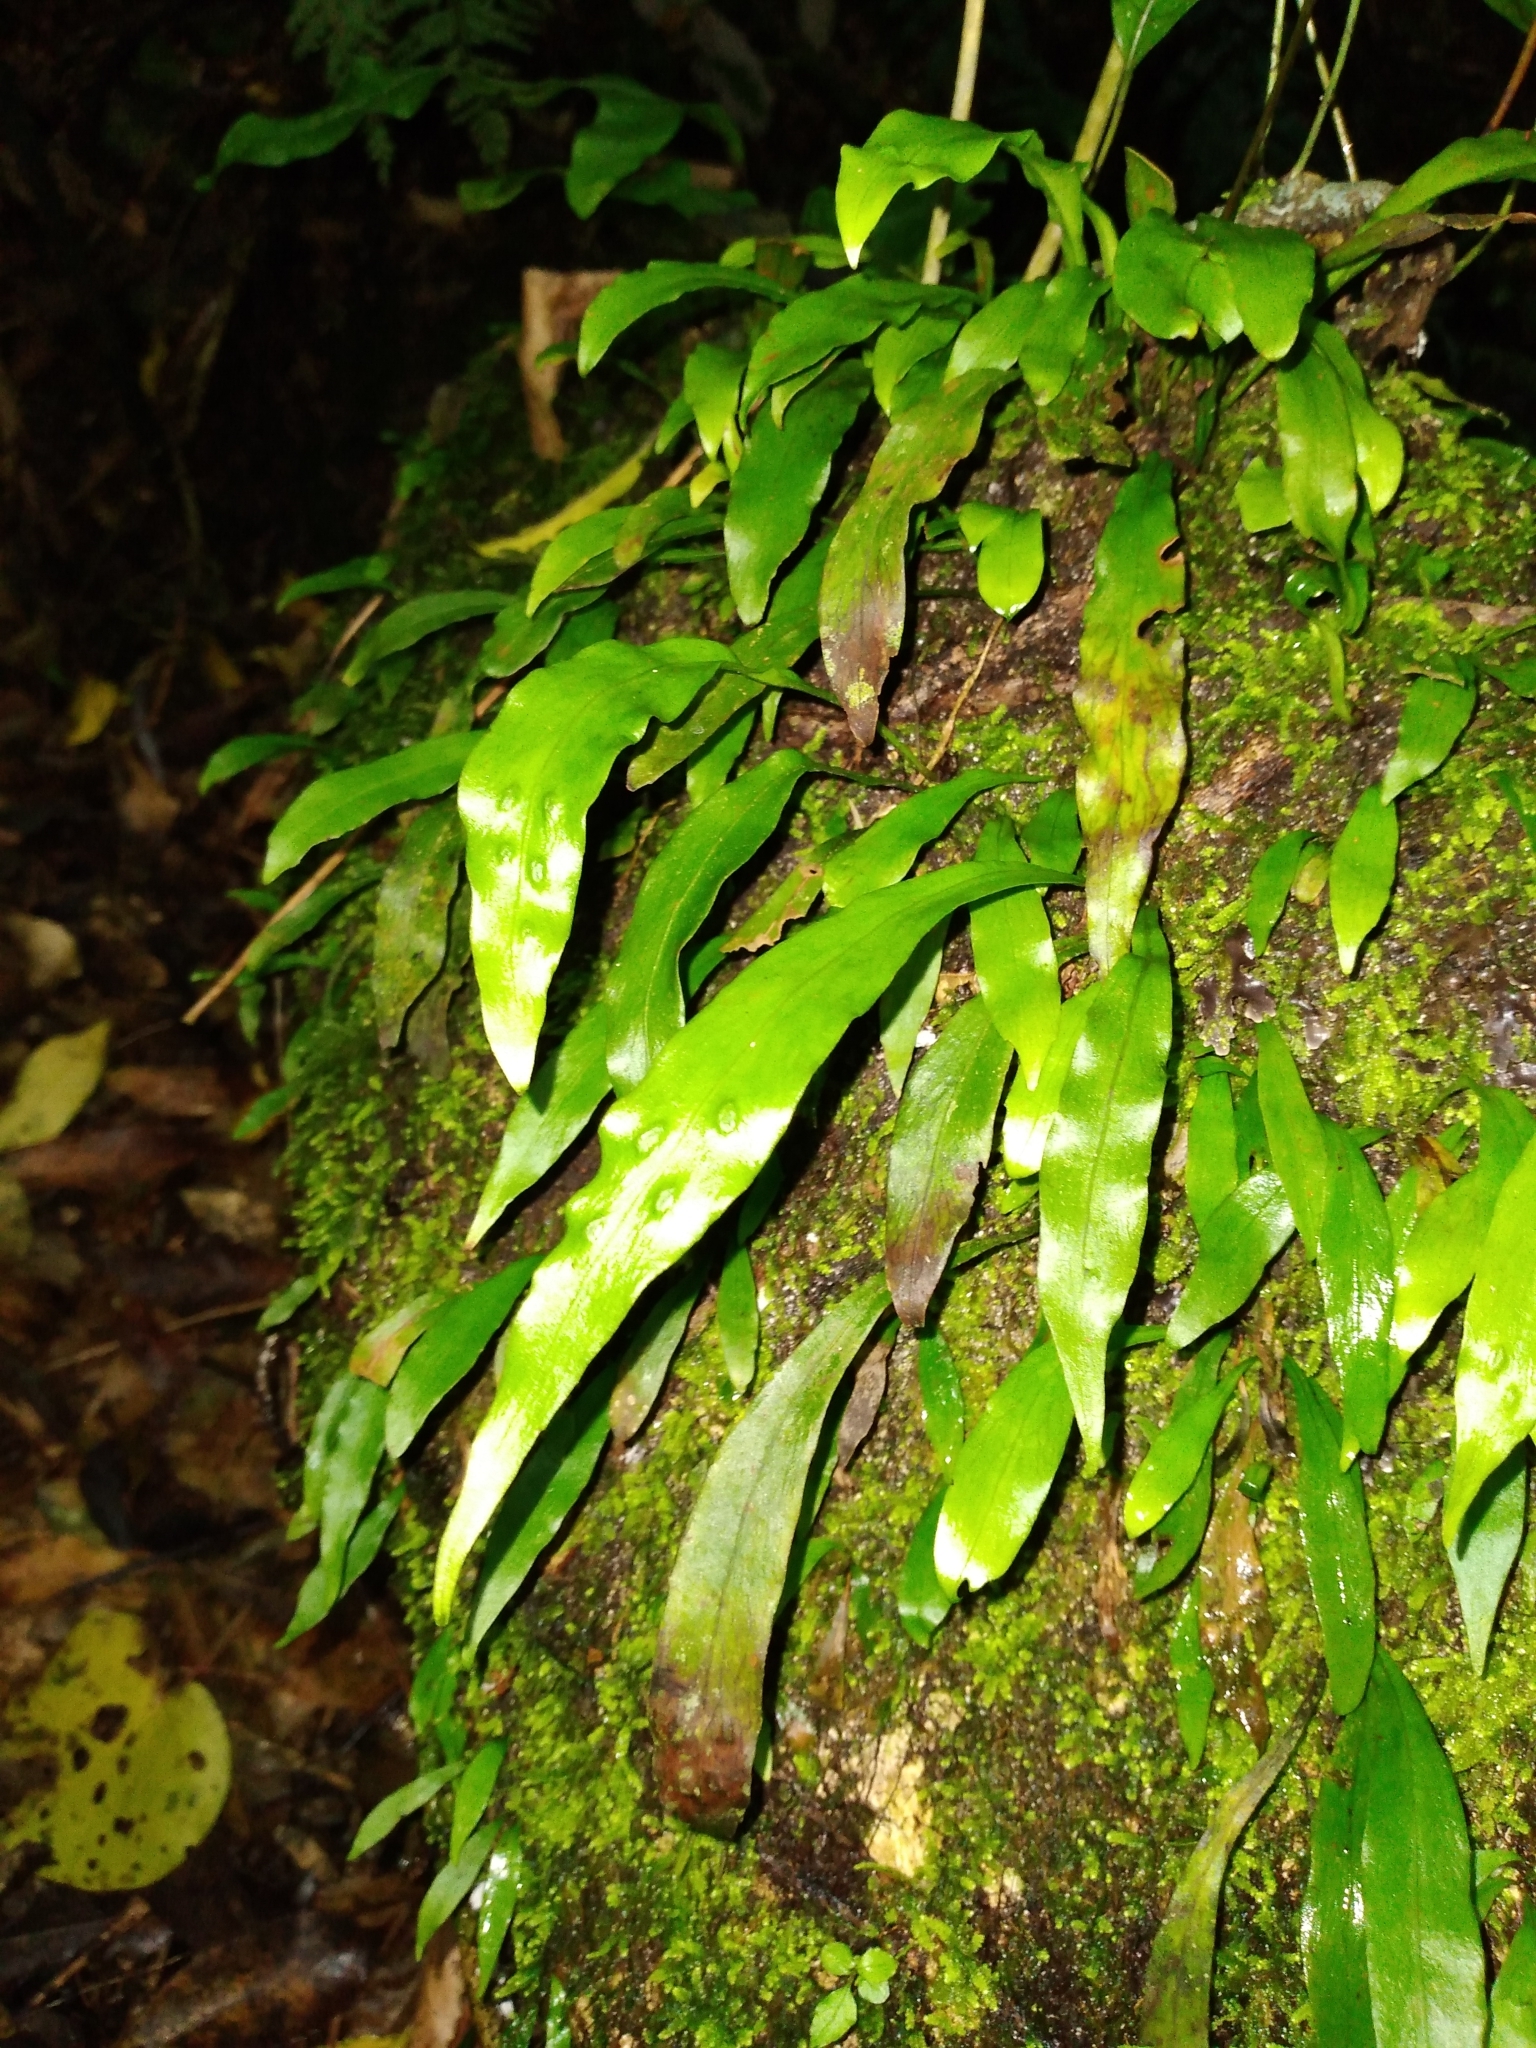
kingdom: Plantae
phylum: Tracheophyta
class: Polypodiopsida
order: Polypodiales
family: Polypodiaceae
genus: Loxogramme
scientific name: Loxogramme dictyopteris
